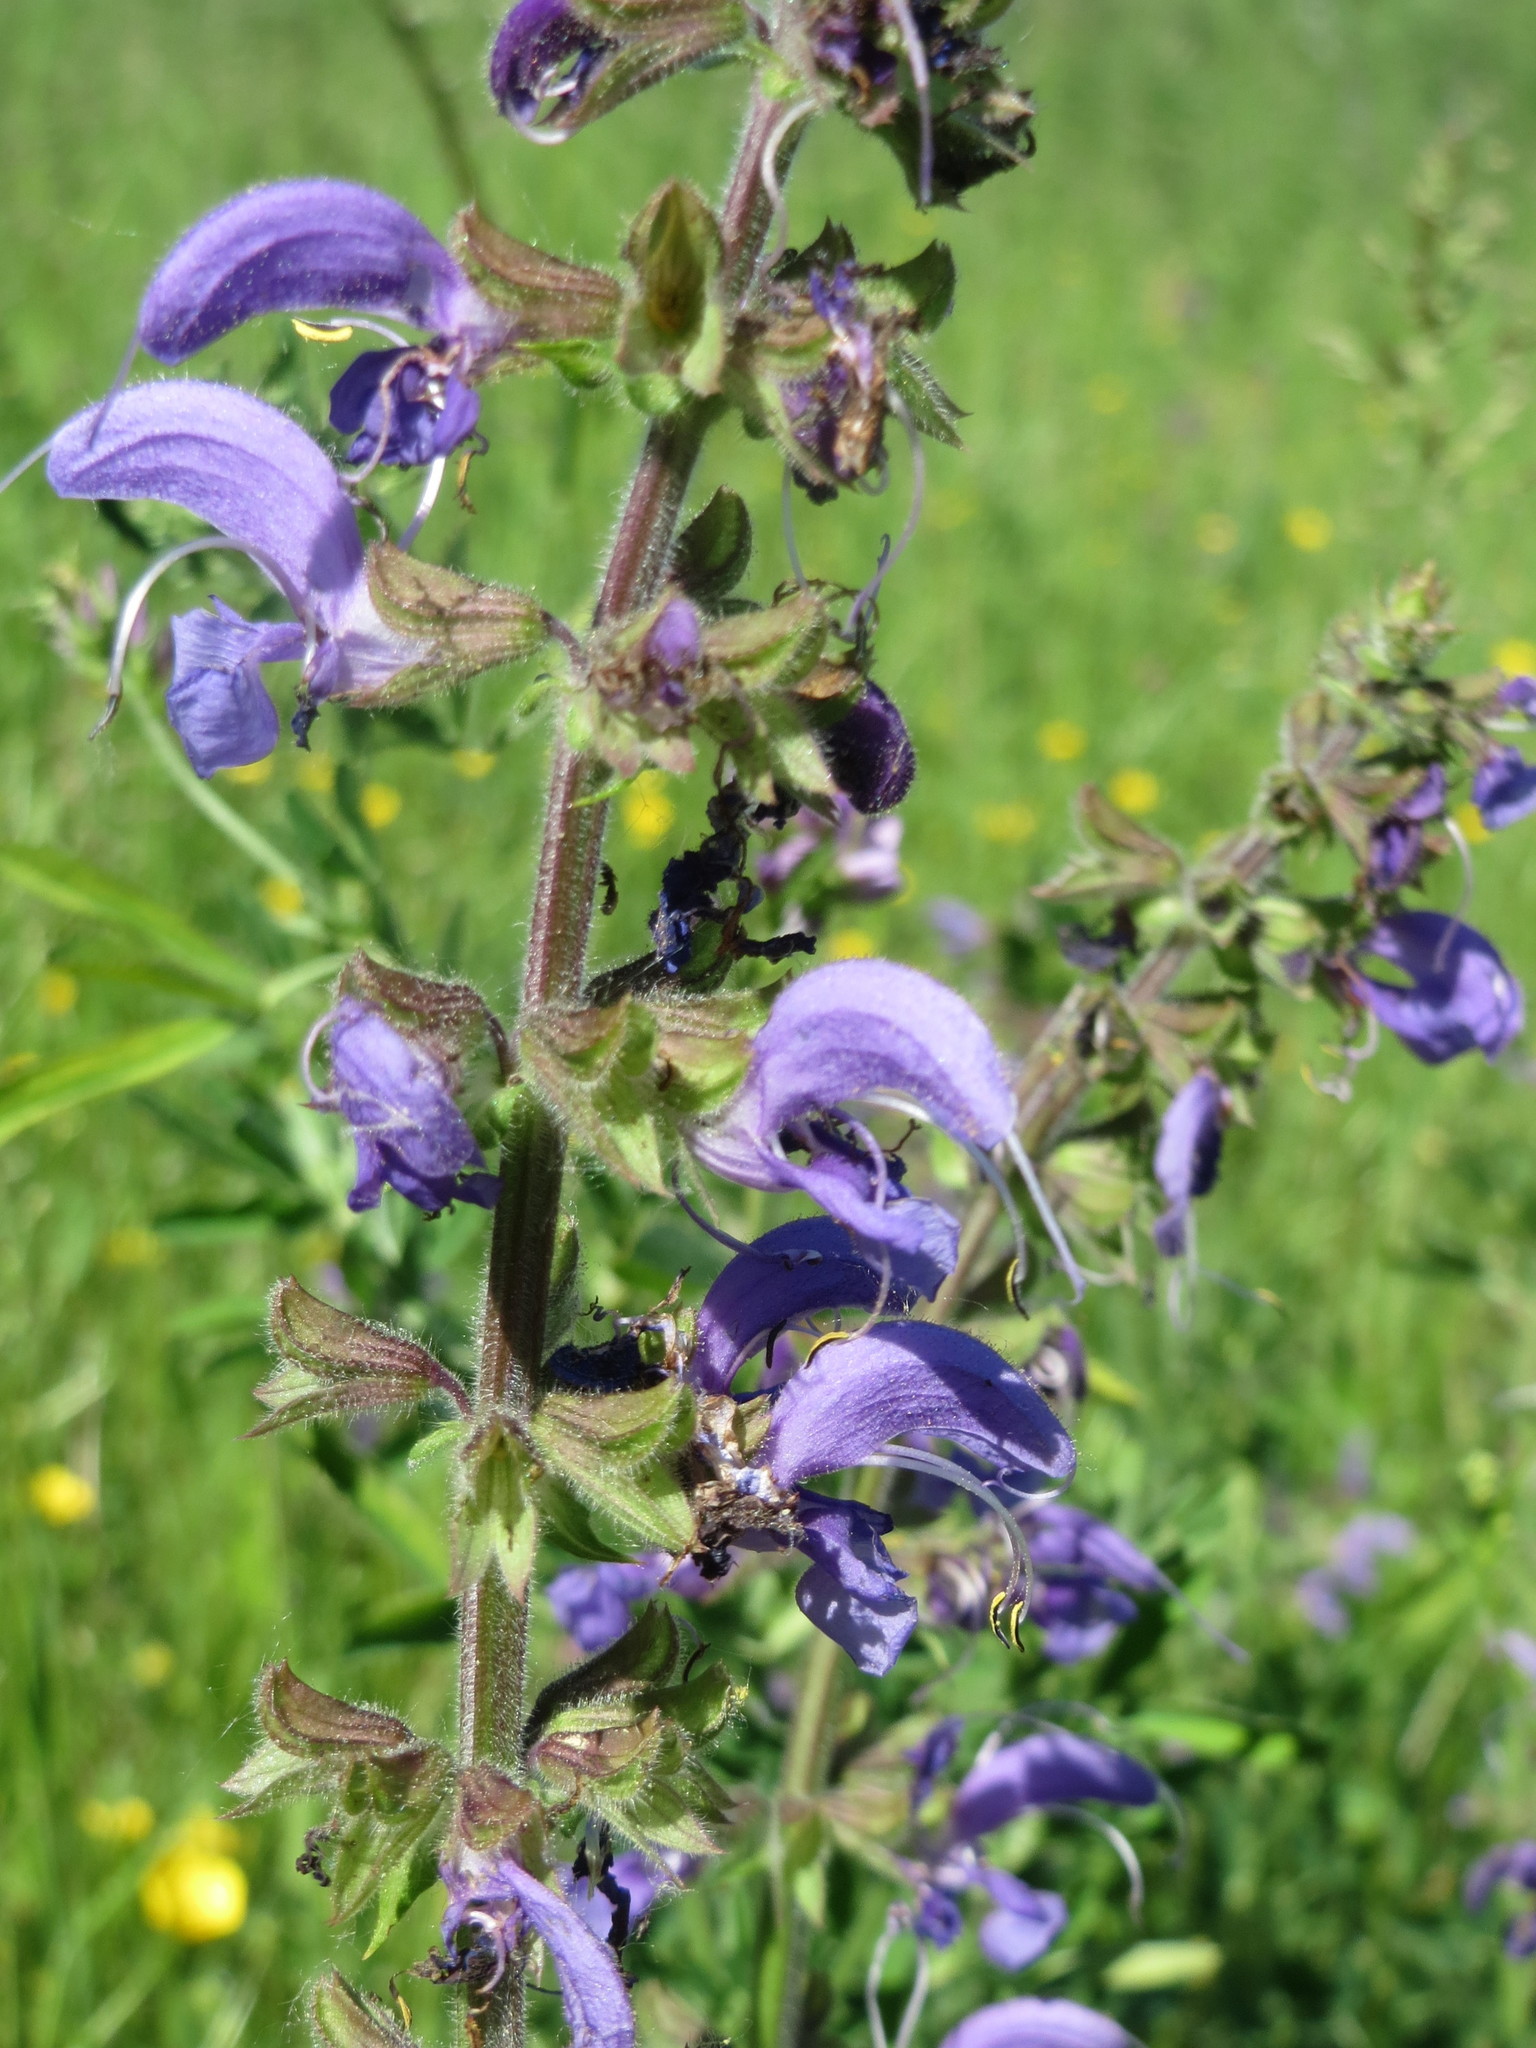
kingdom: Plantae
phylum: Tracheophyta
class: Magnoliopsida
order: Lamiales
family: Lamiaceae
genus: Salvia
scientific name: Salvia pratensis
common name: Meadow sage
